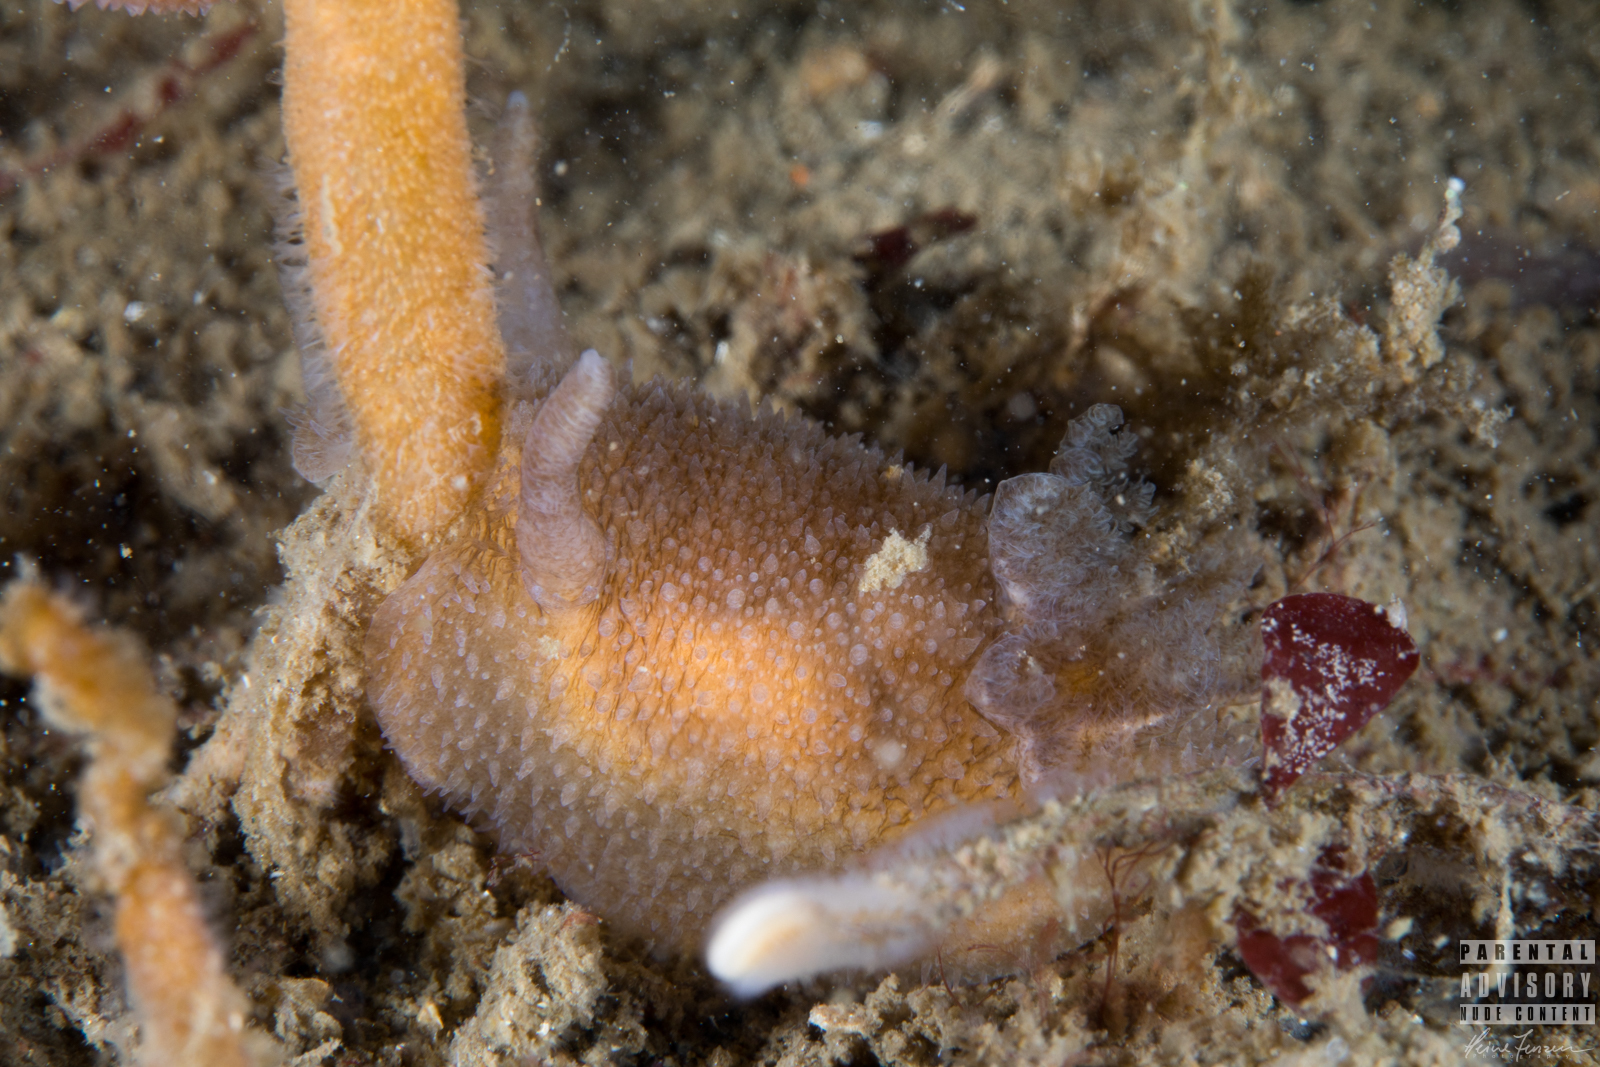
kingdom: Animalia
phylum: Mollusca
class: Gastropoda
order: Nudibranchia
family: Onchidorididae
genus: Acanthodoris
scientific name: Acanthodoris pilosa
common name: Hairy spiny doris
